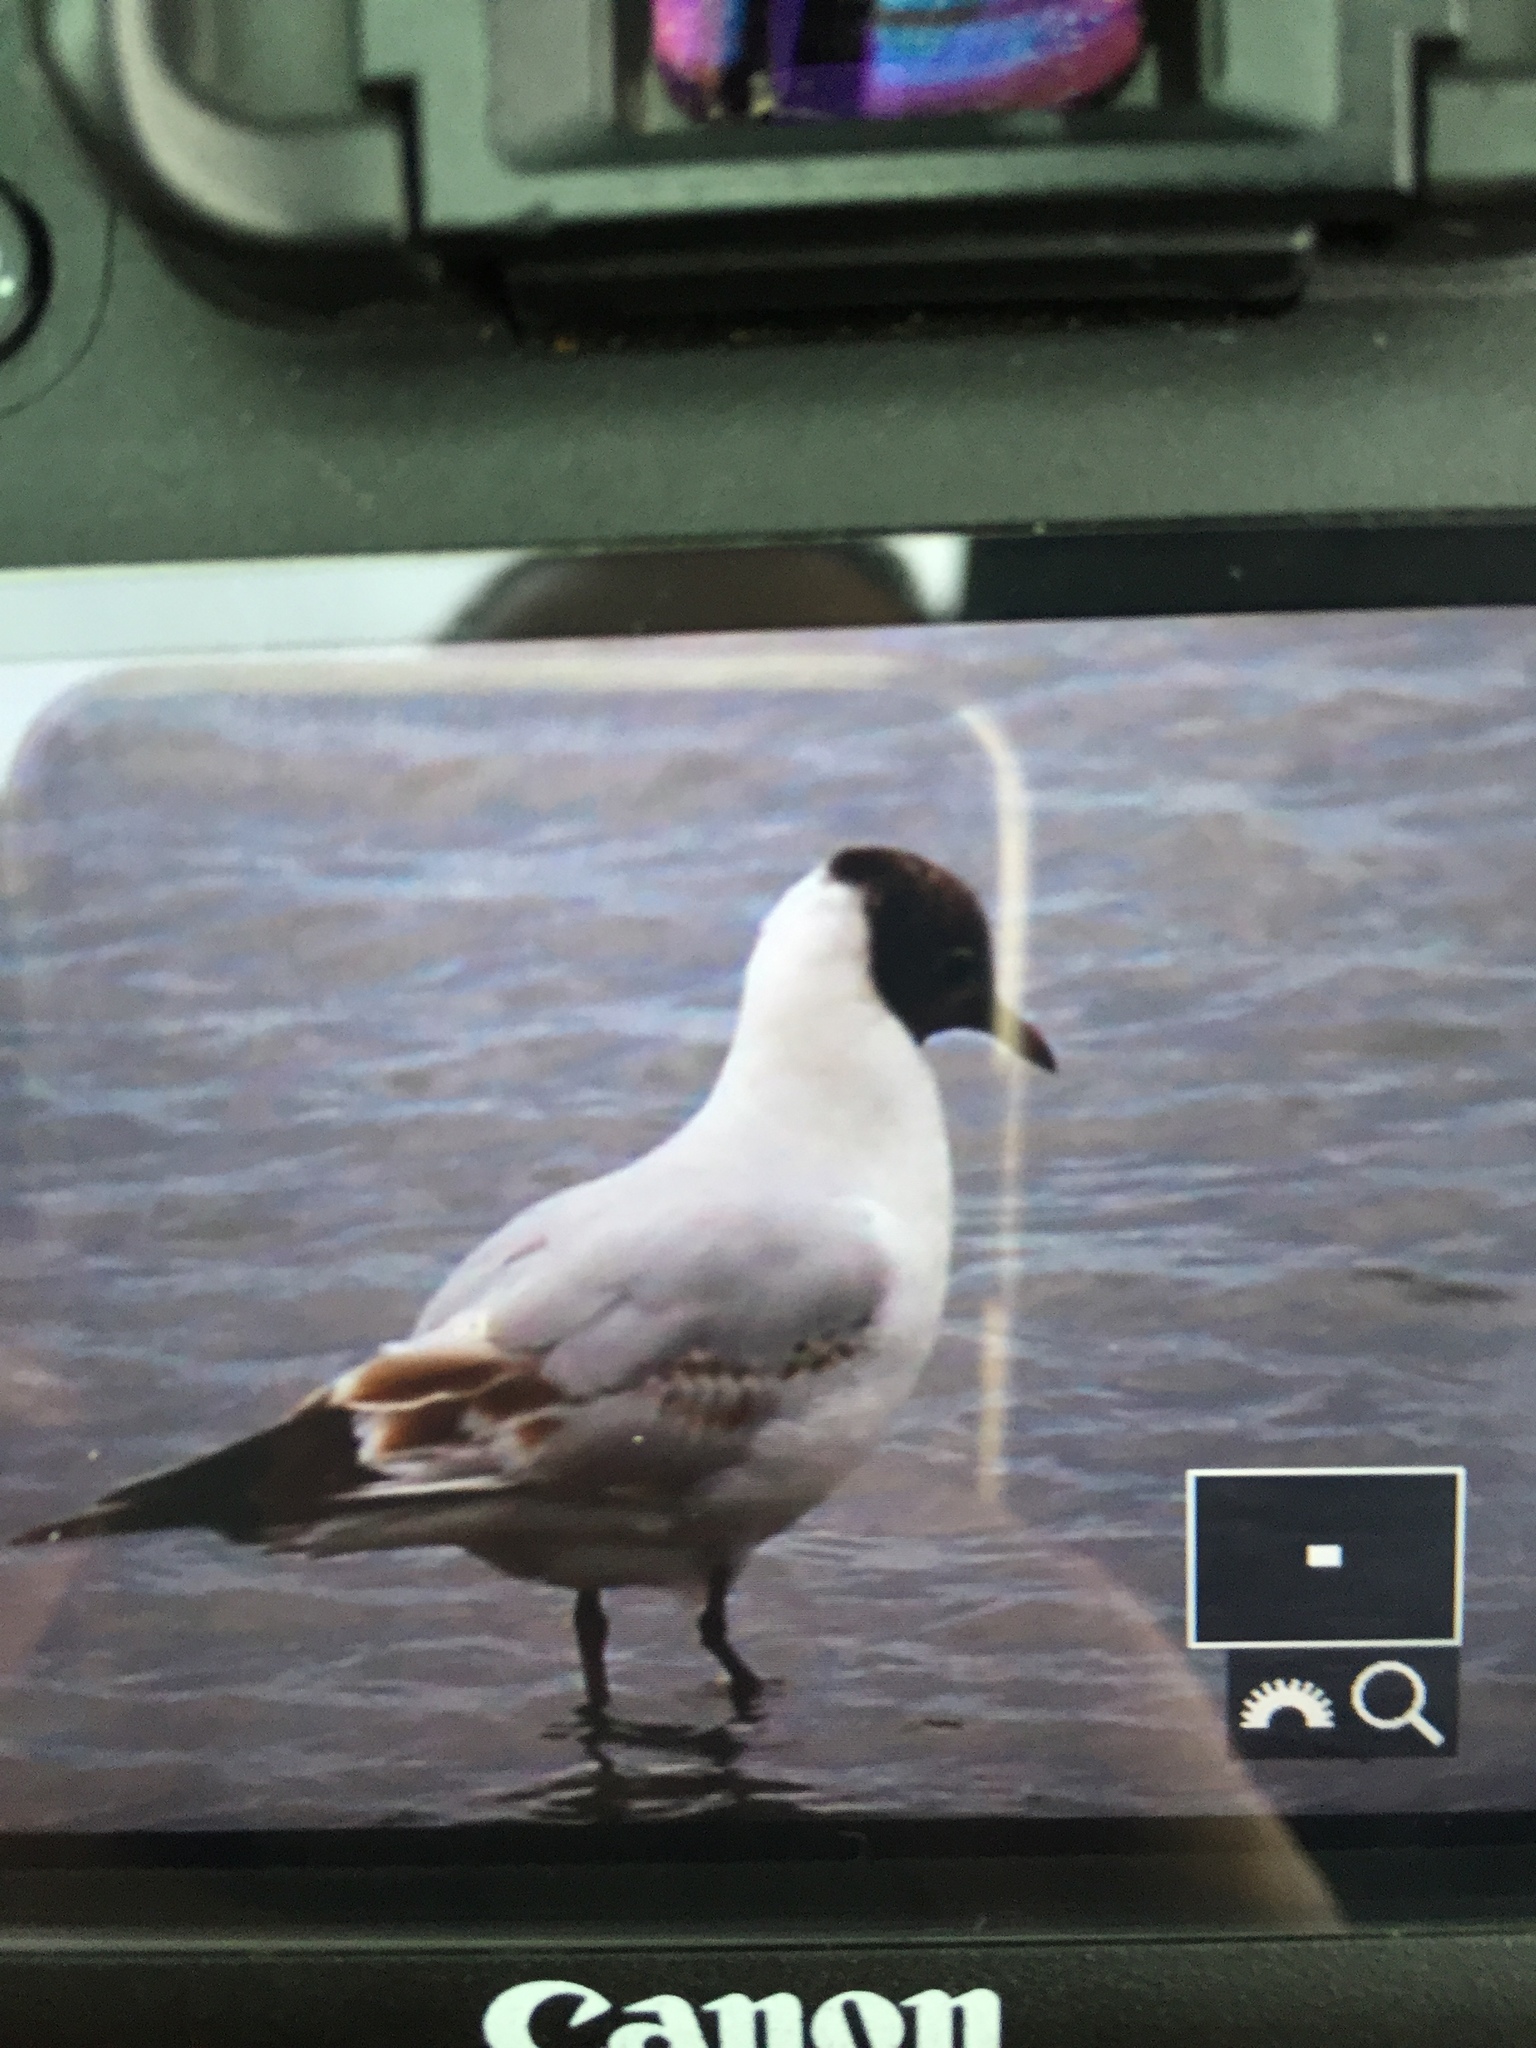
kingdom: Animalia
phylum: Chordata
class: Aves
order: Charadriiformes
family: Laridae
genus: Chroicocephalus
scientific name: Chroicocephalus ridibundus
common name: Black-headed gull
